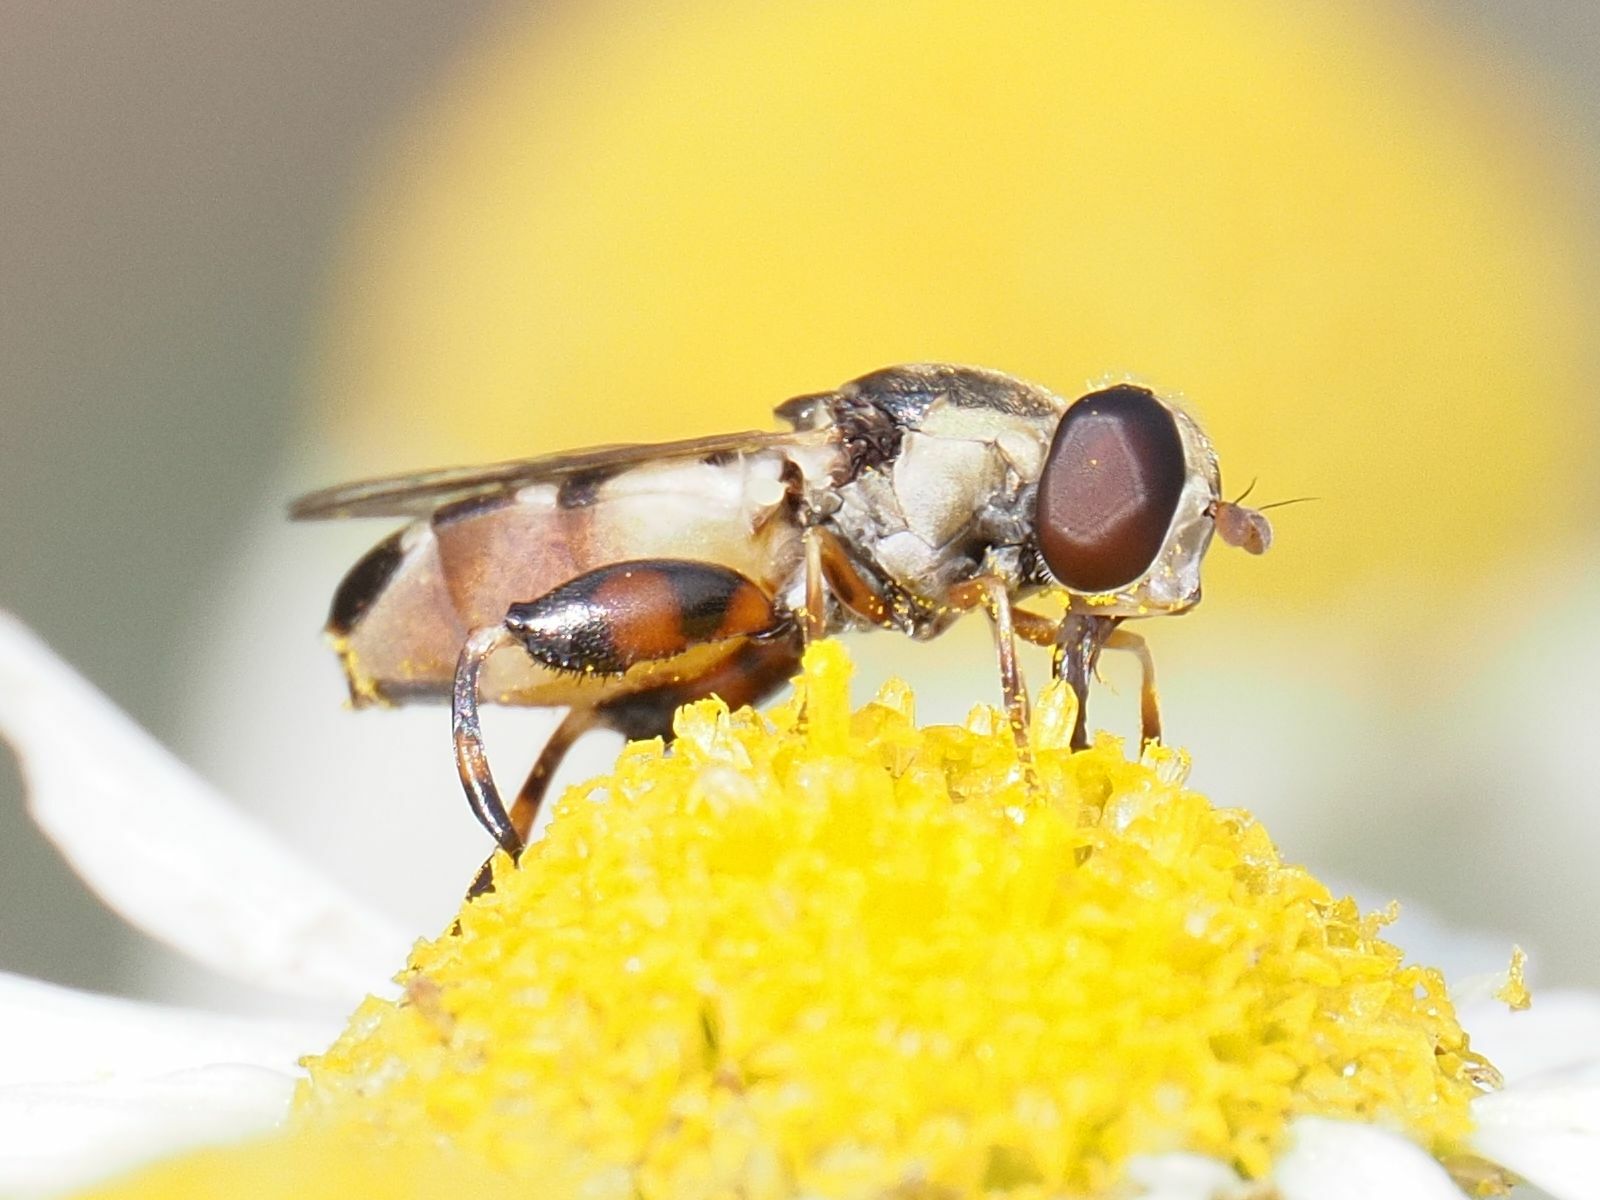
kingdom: Animalia
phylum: Arthropoda
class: Insecta
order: Diptera
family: Syrphidae
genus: Syritta
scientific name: Syritta pipiens
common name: Hover fly
